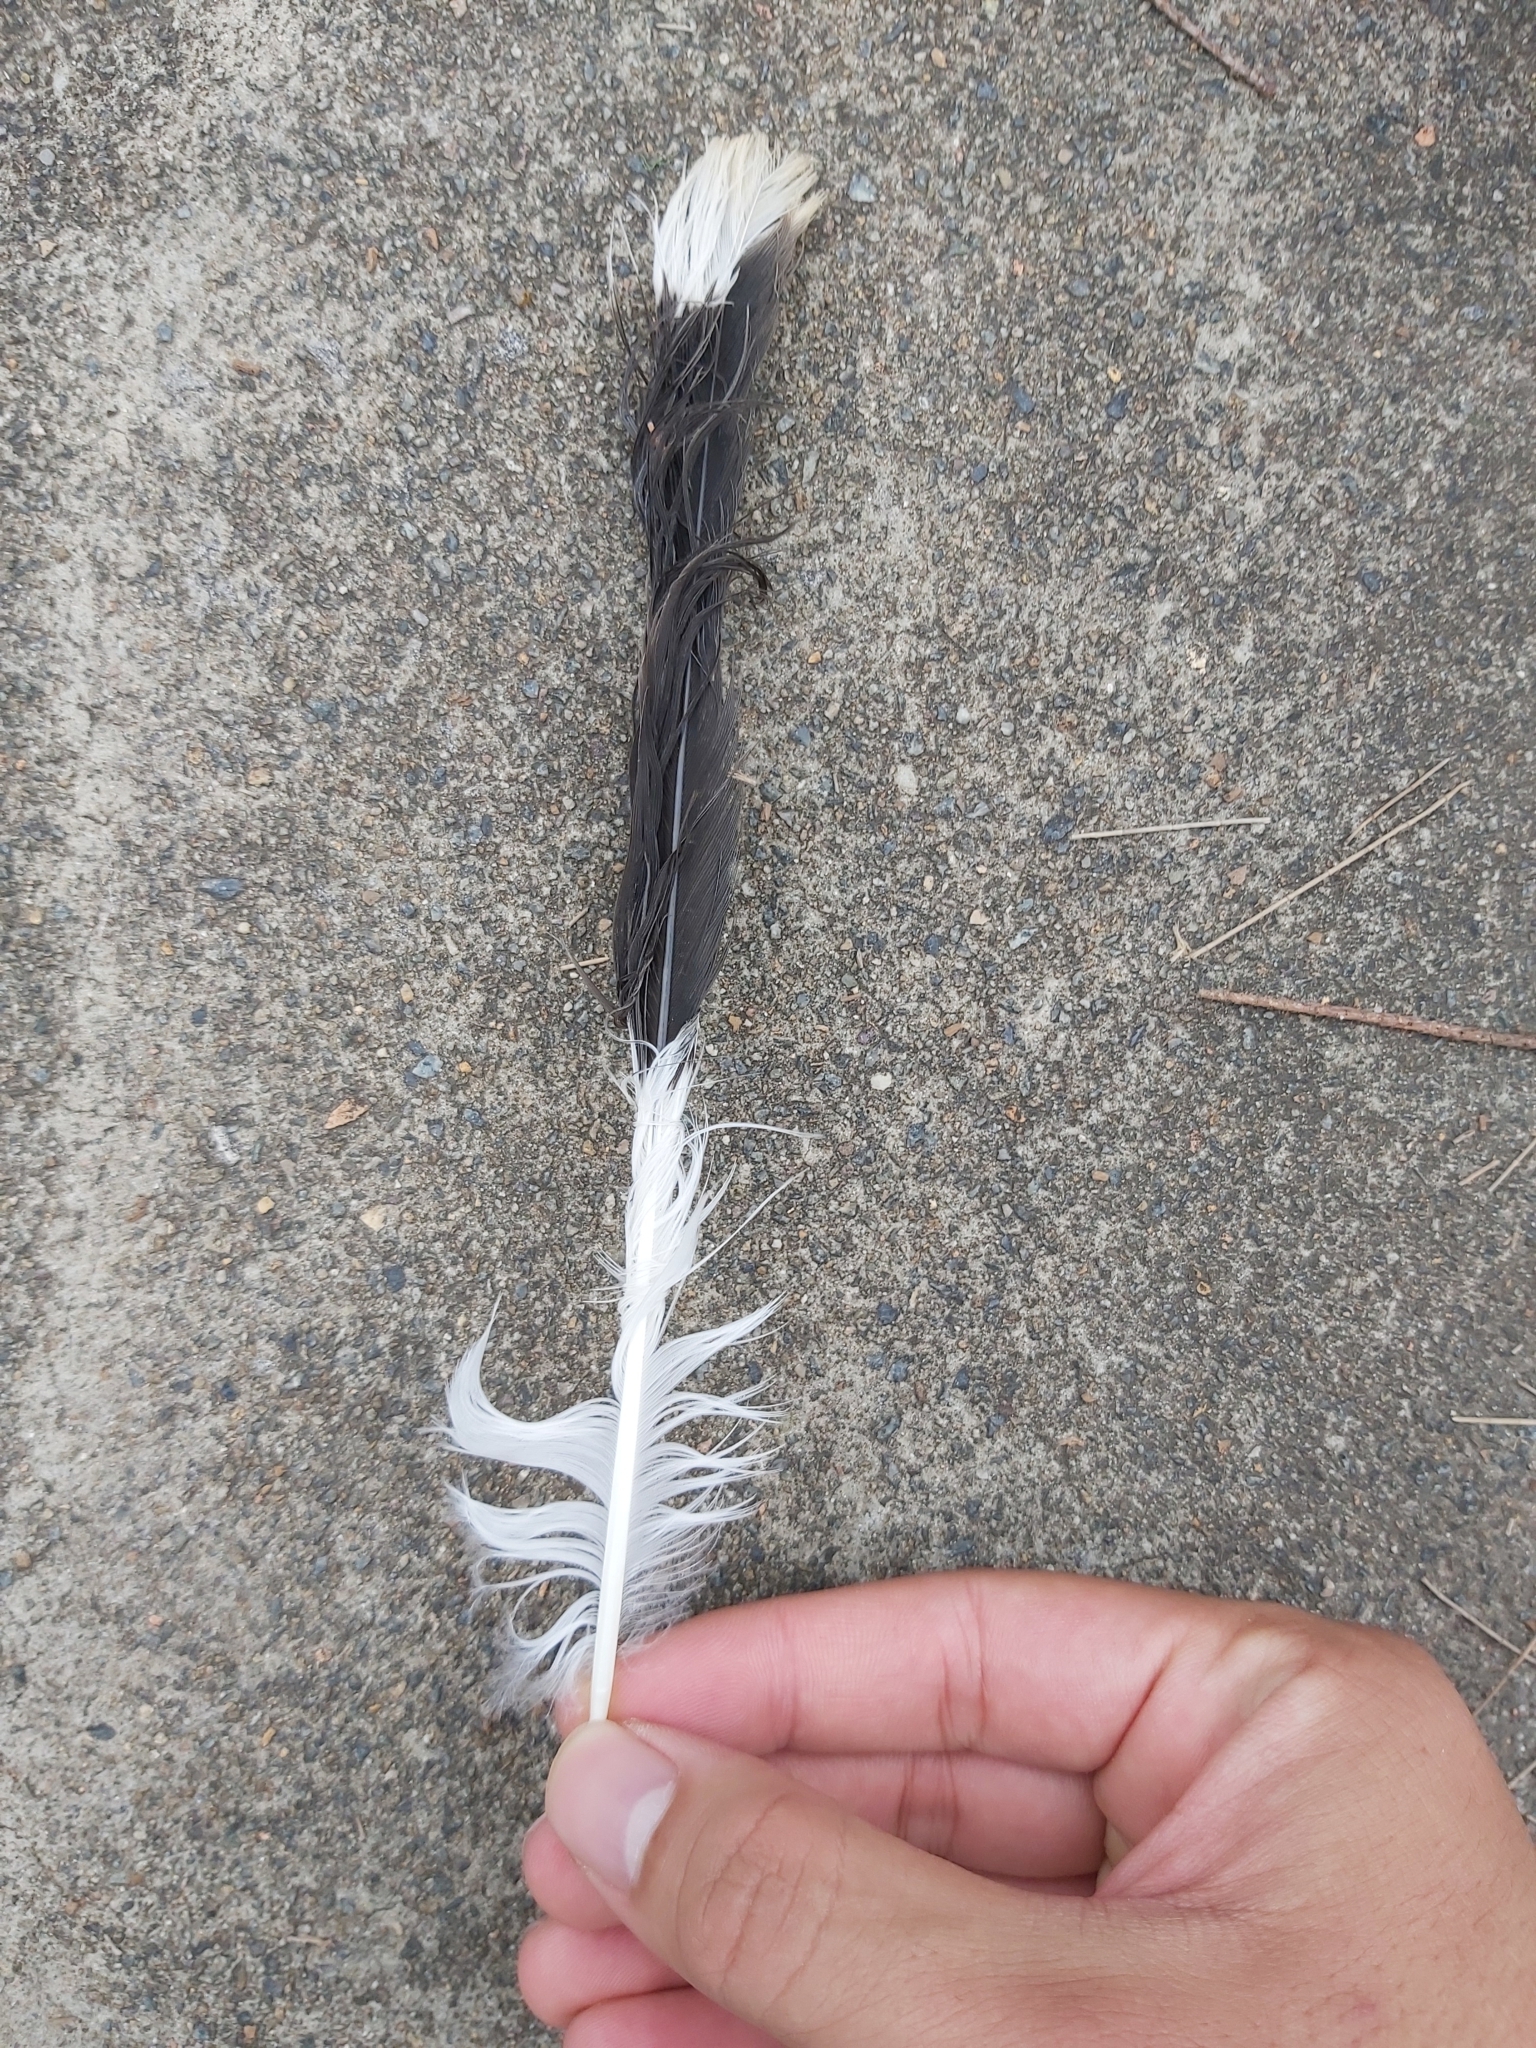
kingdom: Animalia
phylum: Chordata
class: Aves
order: Passeriformes
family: Cracticidae
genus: Strepera
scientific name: Strepera graculina
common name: Pied currawong
